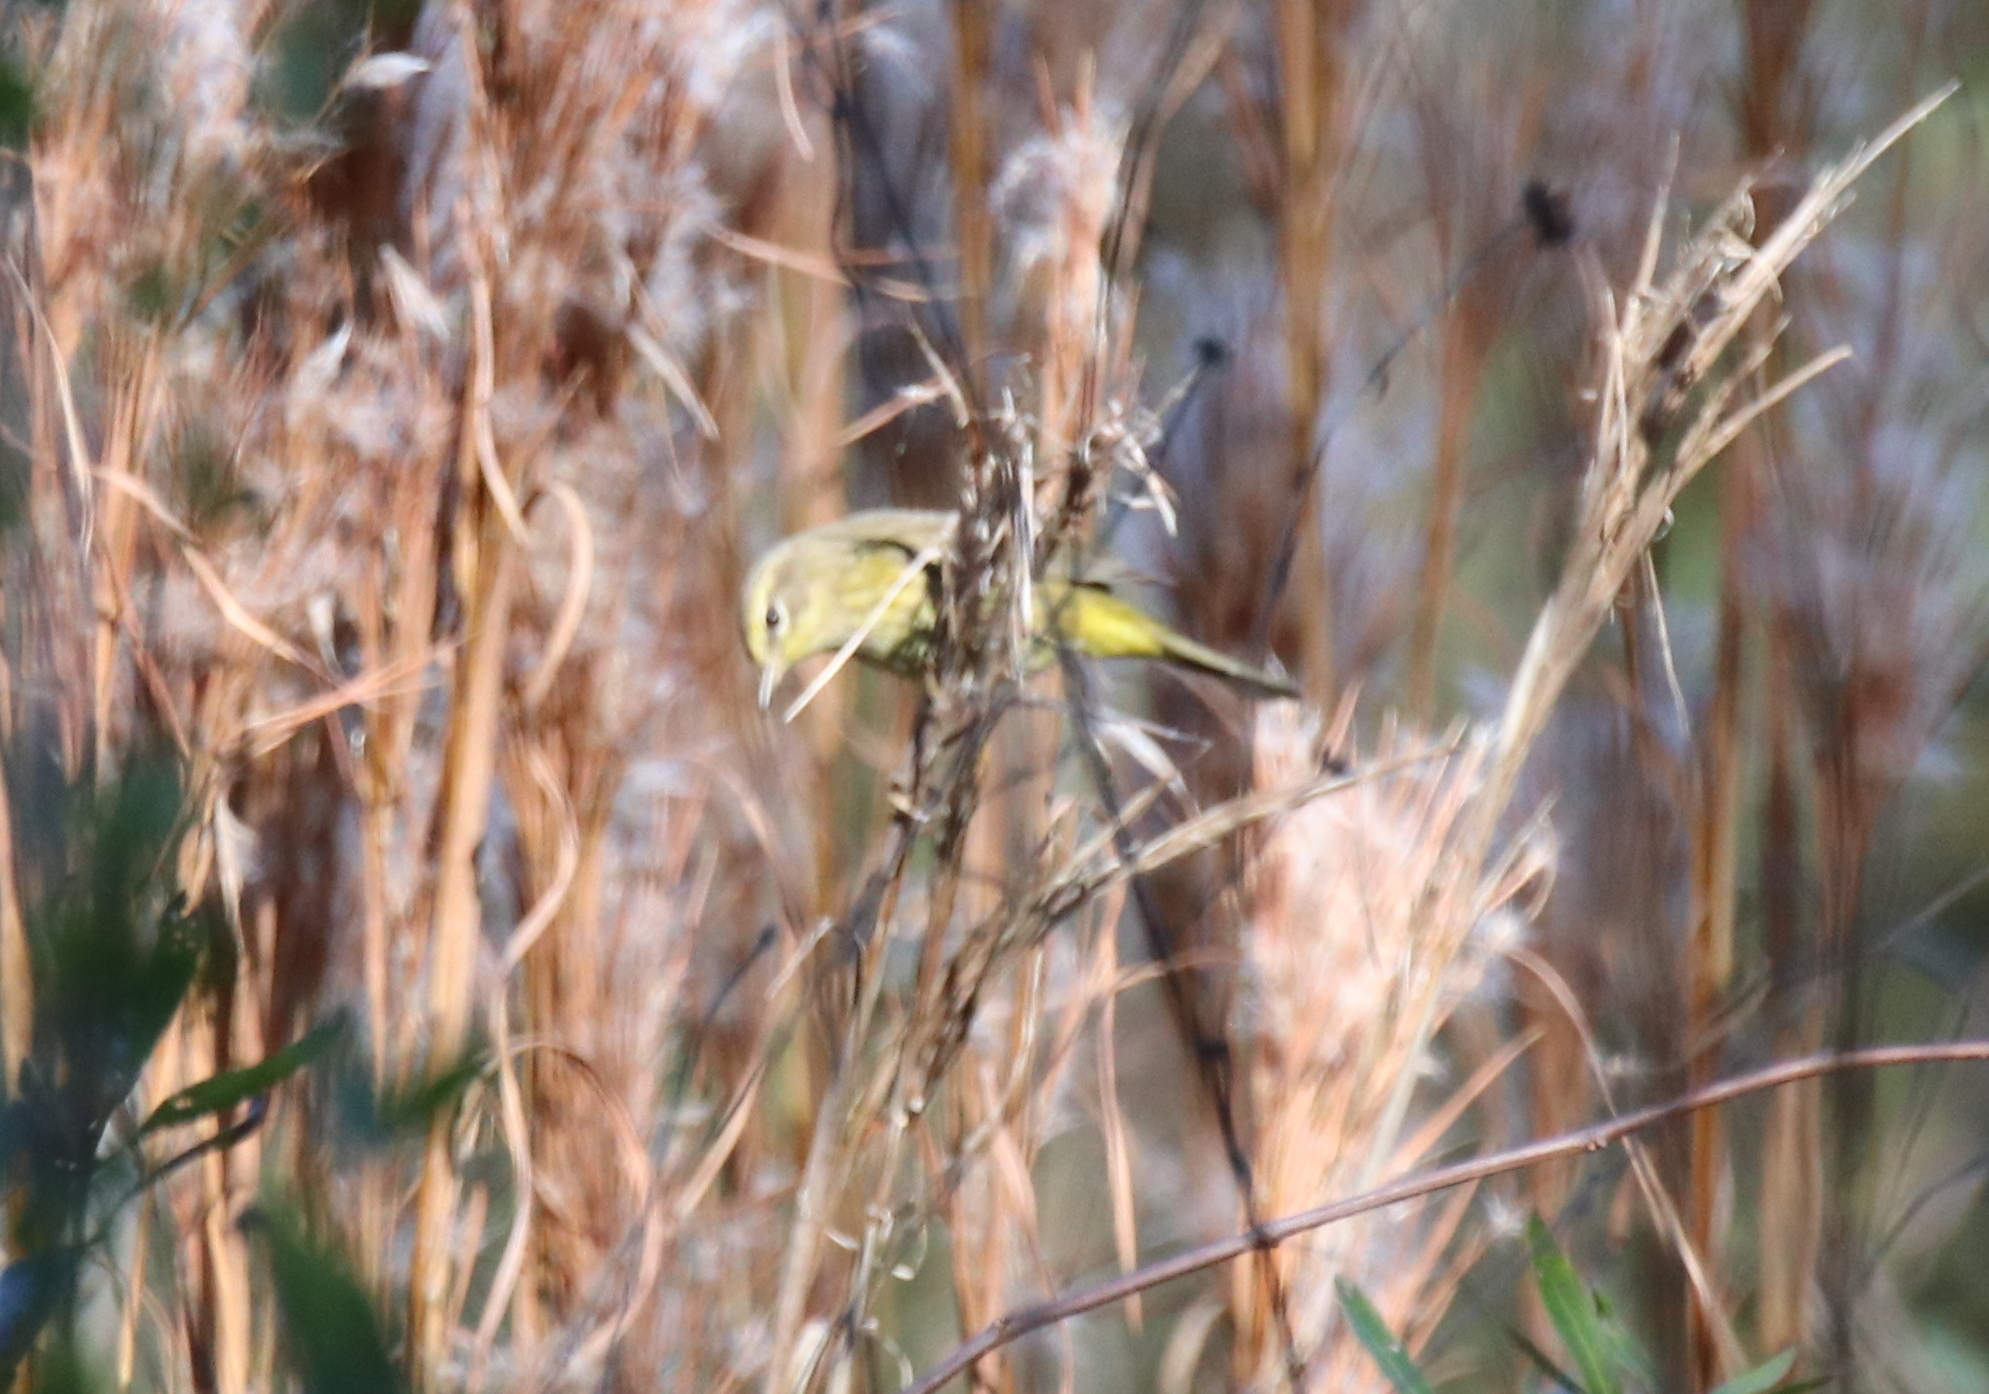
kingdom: Animalia
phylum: Chordata
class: Aves
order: Passeriformes
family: Parulidae
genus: Setophaga
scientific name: Setophaga palmarum
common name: Palm warbler
